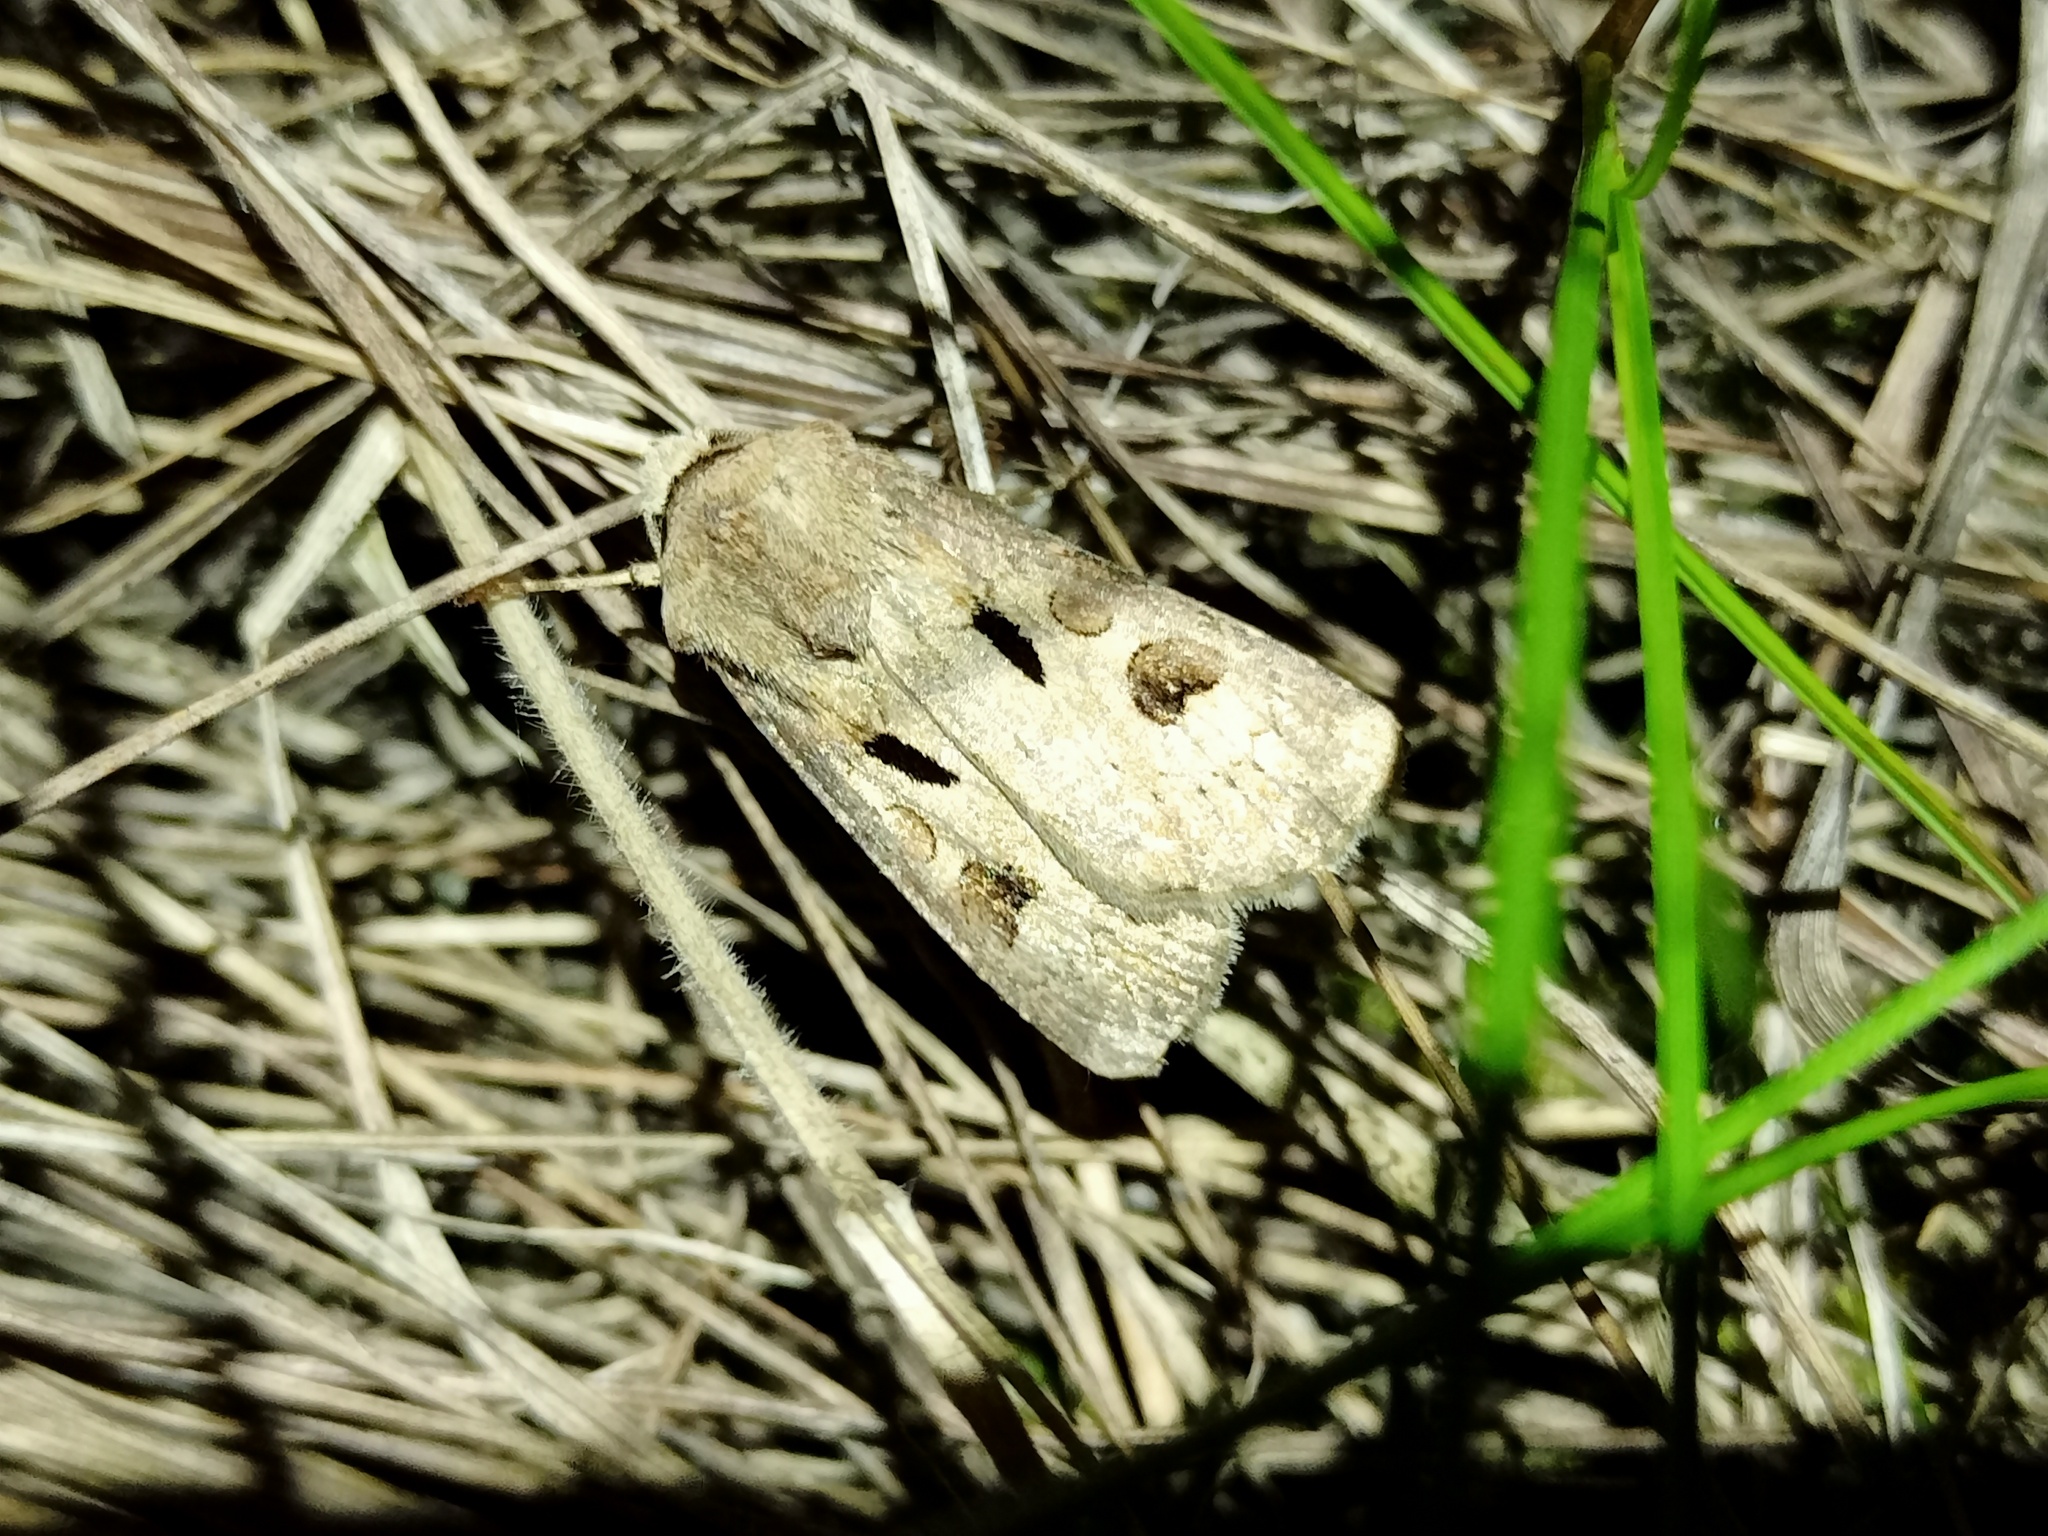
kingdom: Animalia
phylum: Arthropoda
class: Insecta
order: Lepidoptera
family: Noctuidae
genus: Agrotis
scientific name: Agrotis exclamationis
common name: Heart and dart
